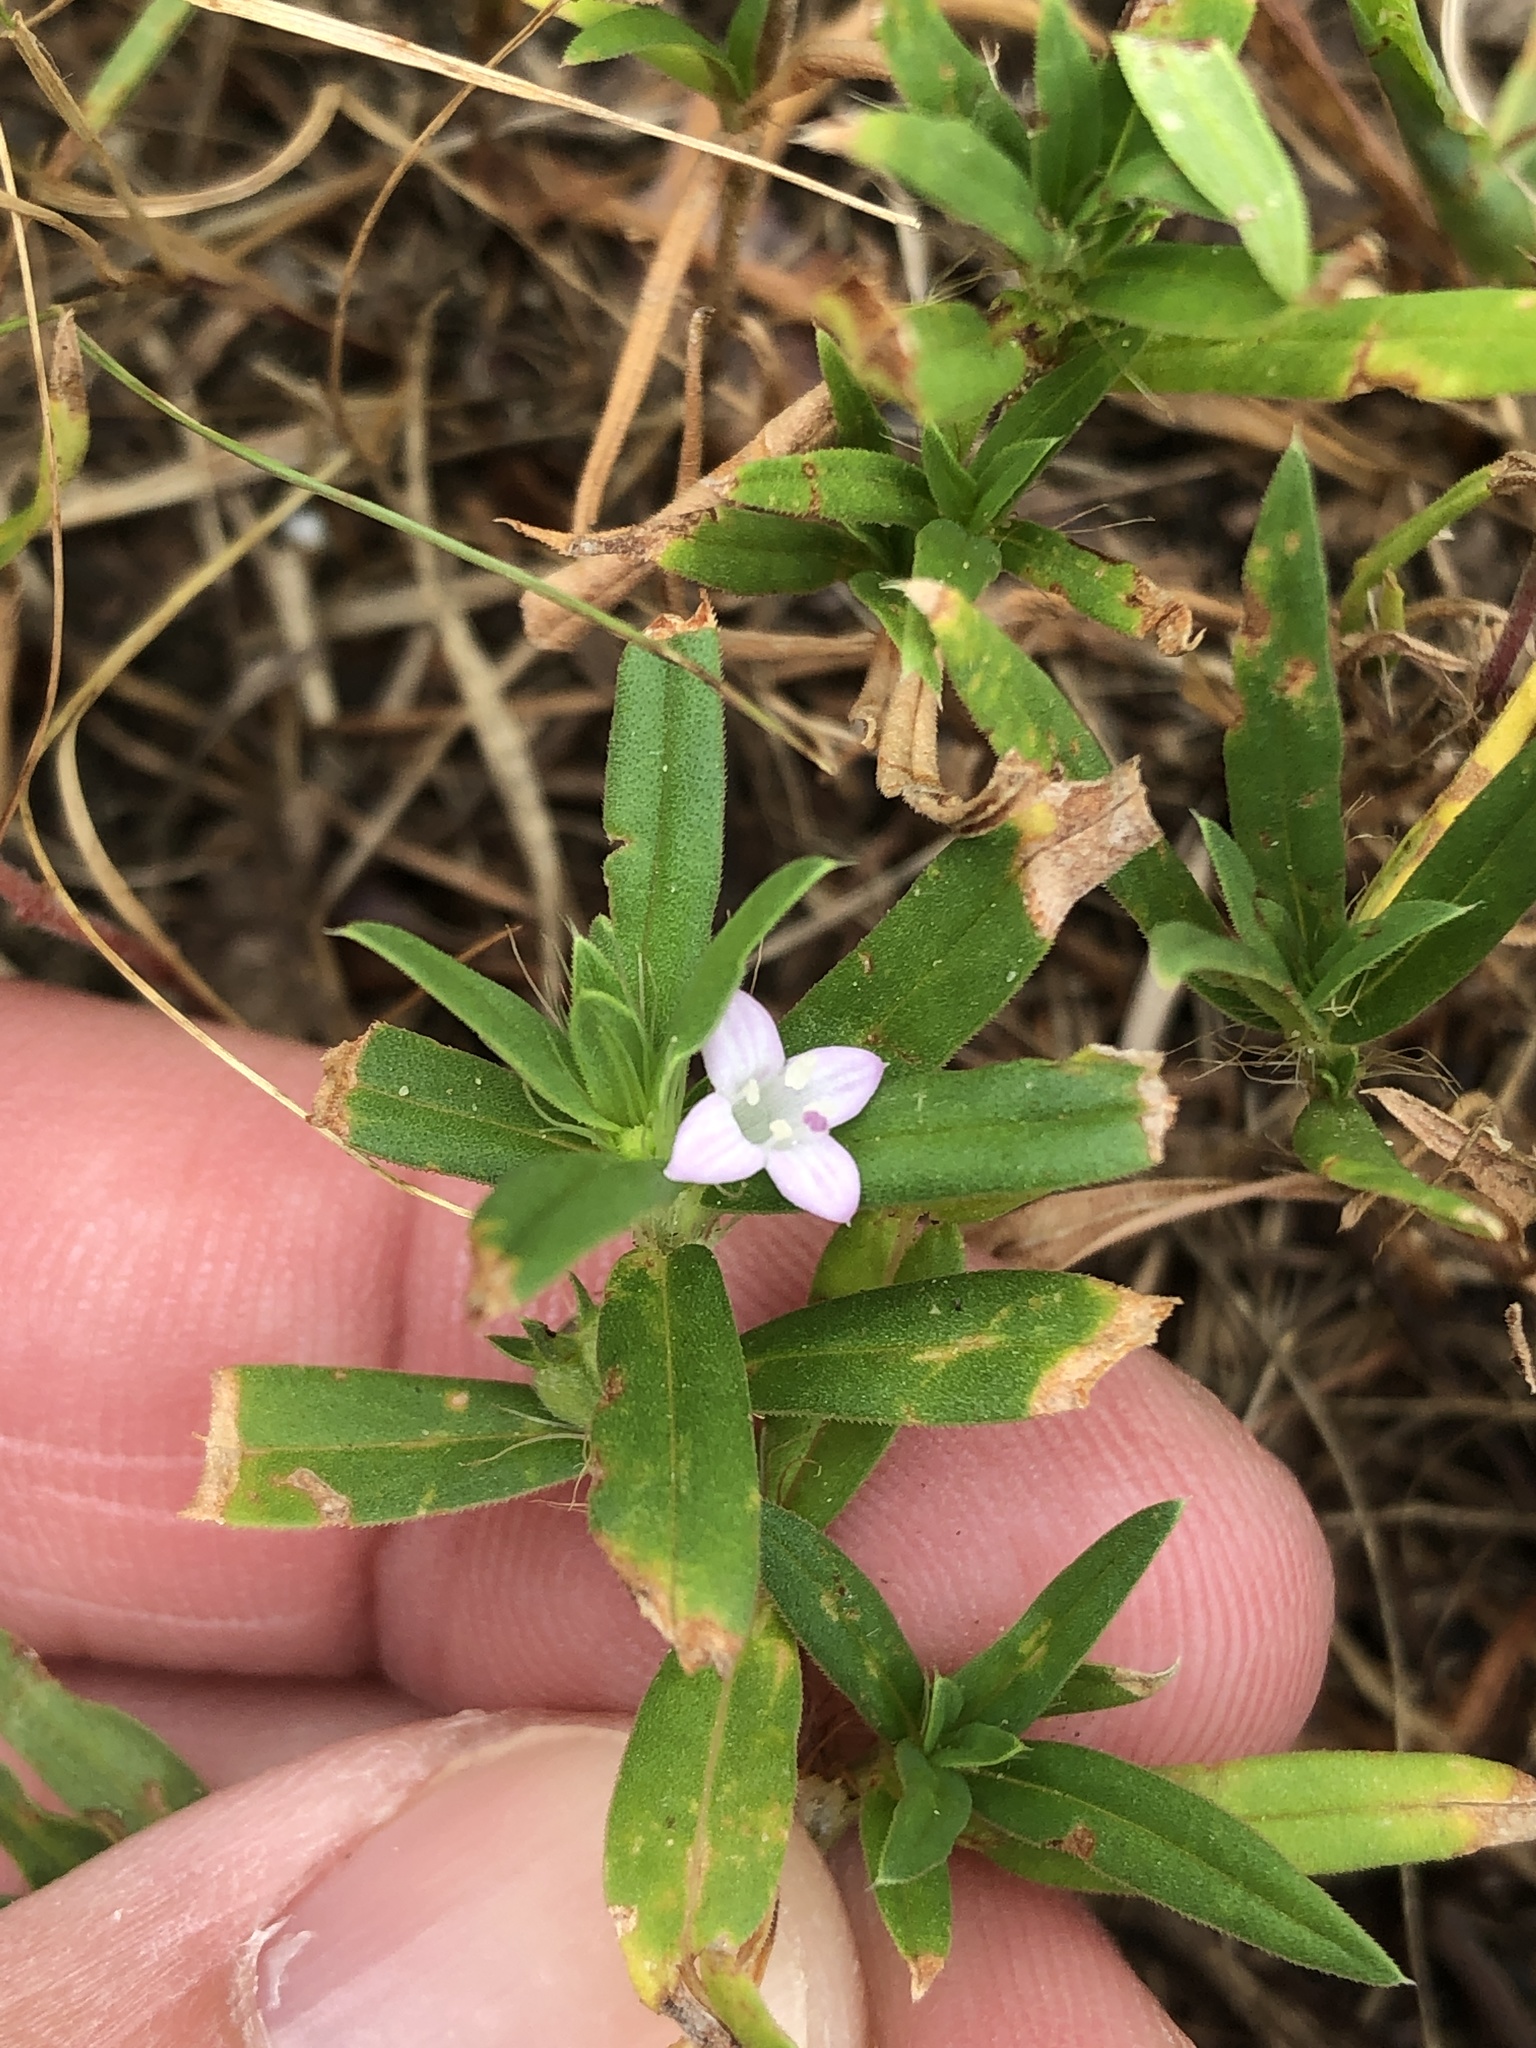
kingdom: Plantae
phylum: Tracheophyta
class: Magnoliopsida
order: Gentianales
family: Rubiaceae
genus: Hexasepalum
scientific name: Hexasepalum teres
